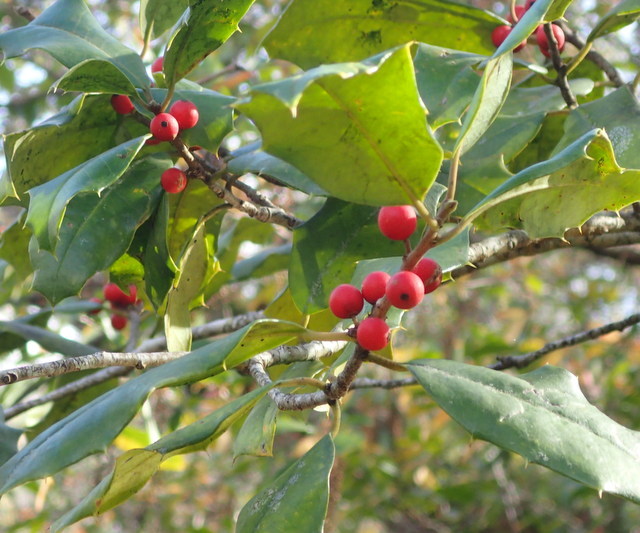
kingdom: Plantae
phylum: Tracheophyta
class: Magnoliopsida
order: Aquifoliales
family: Aquifoliaceae
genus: Ilex
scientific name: Ilex opaca
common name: American holly
